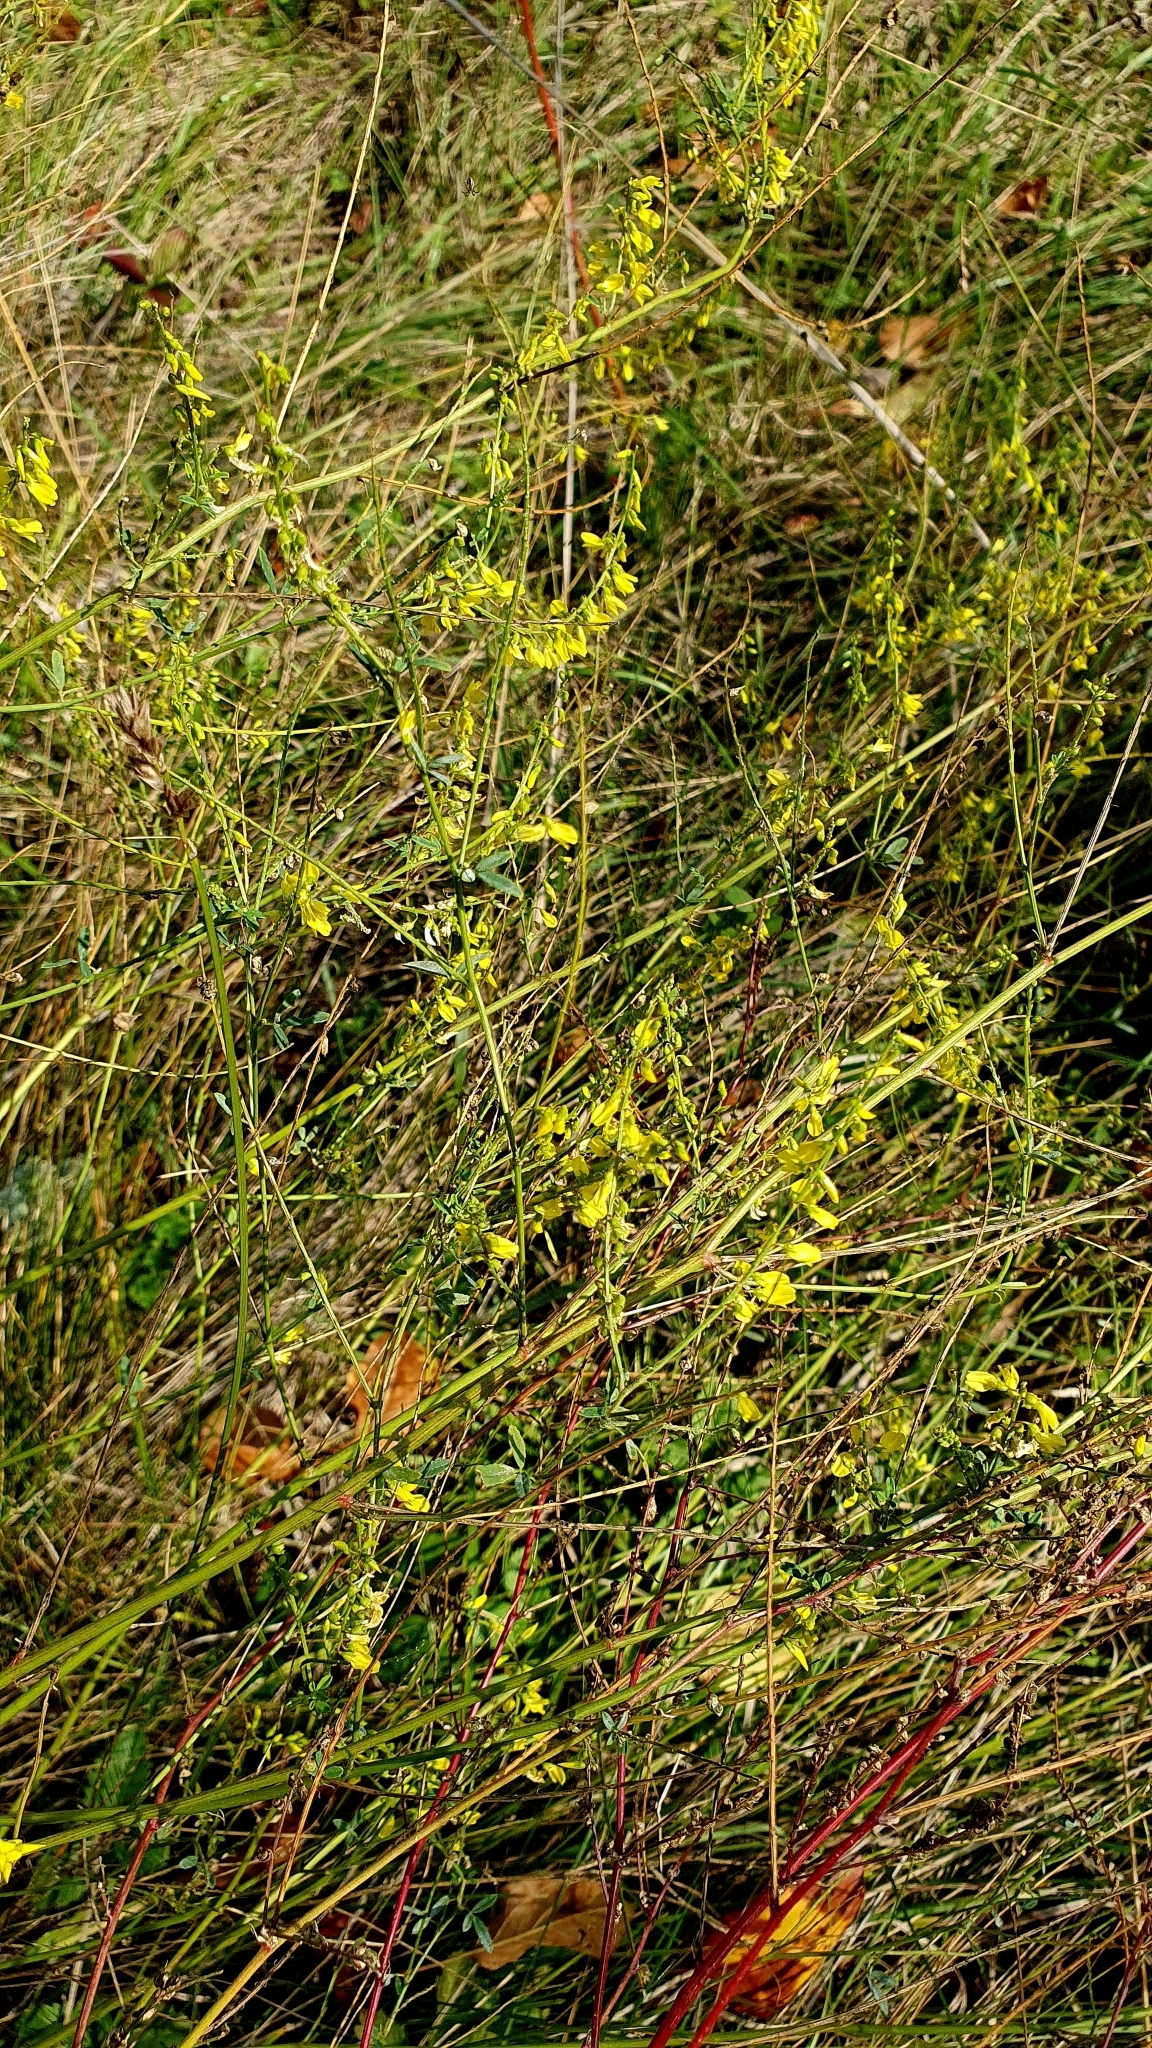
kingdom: Plantae
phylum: Tracheophyta
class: Magnoliopsida
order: Fabales
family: Fabaceae
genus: Melilotus
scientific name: Melilotus officinalis
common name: Sweetclover
